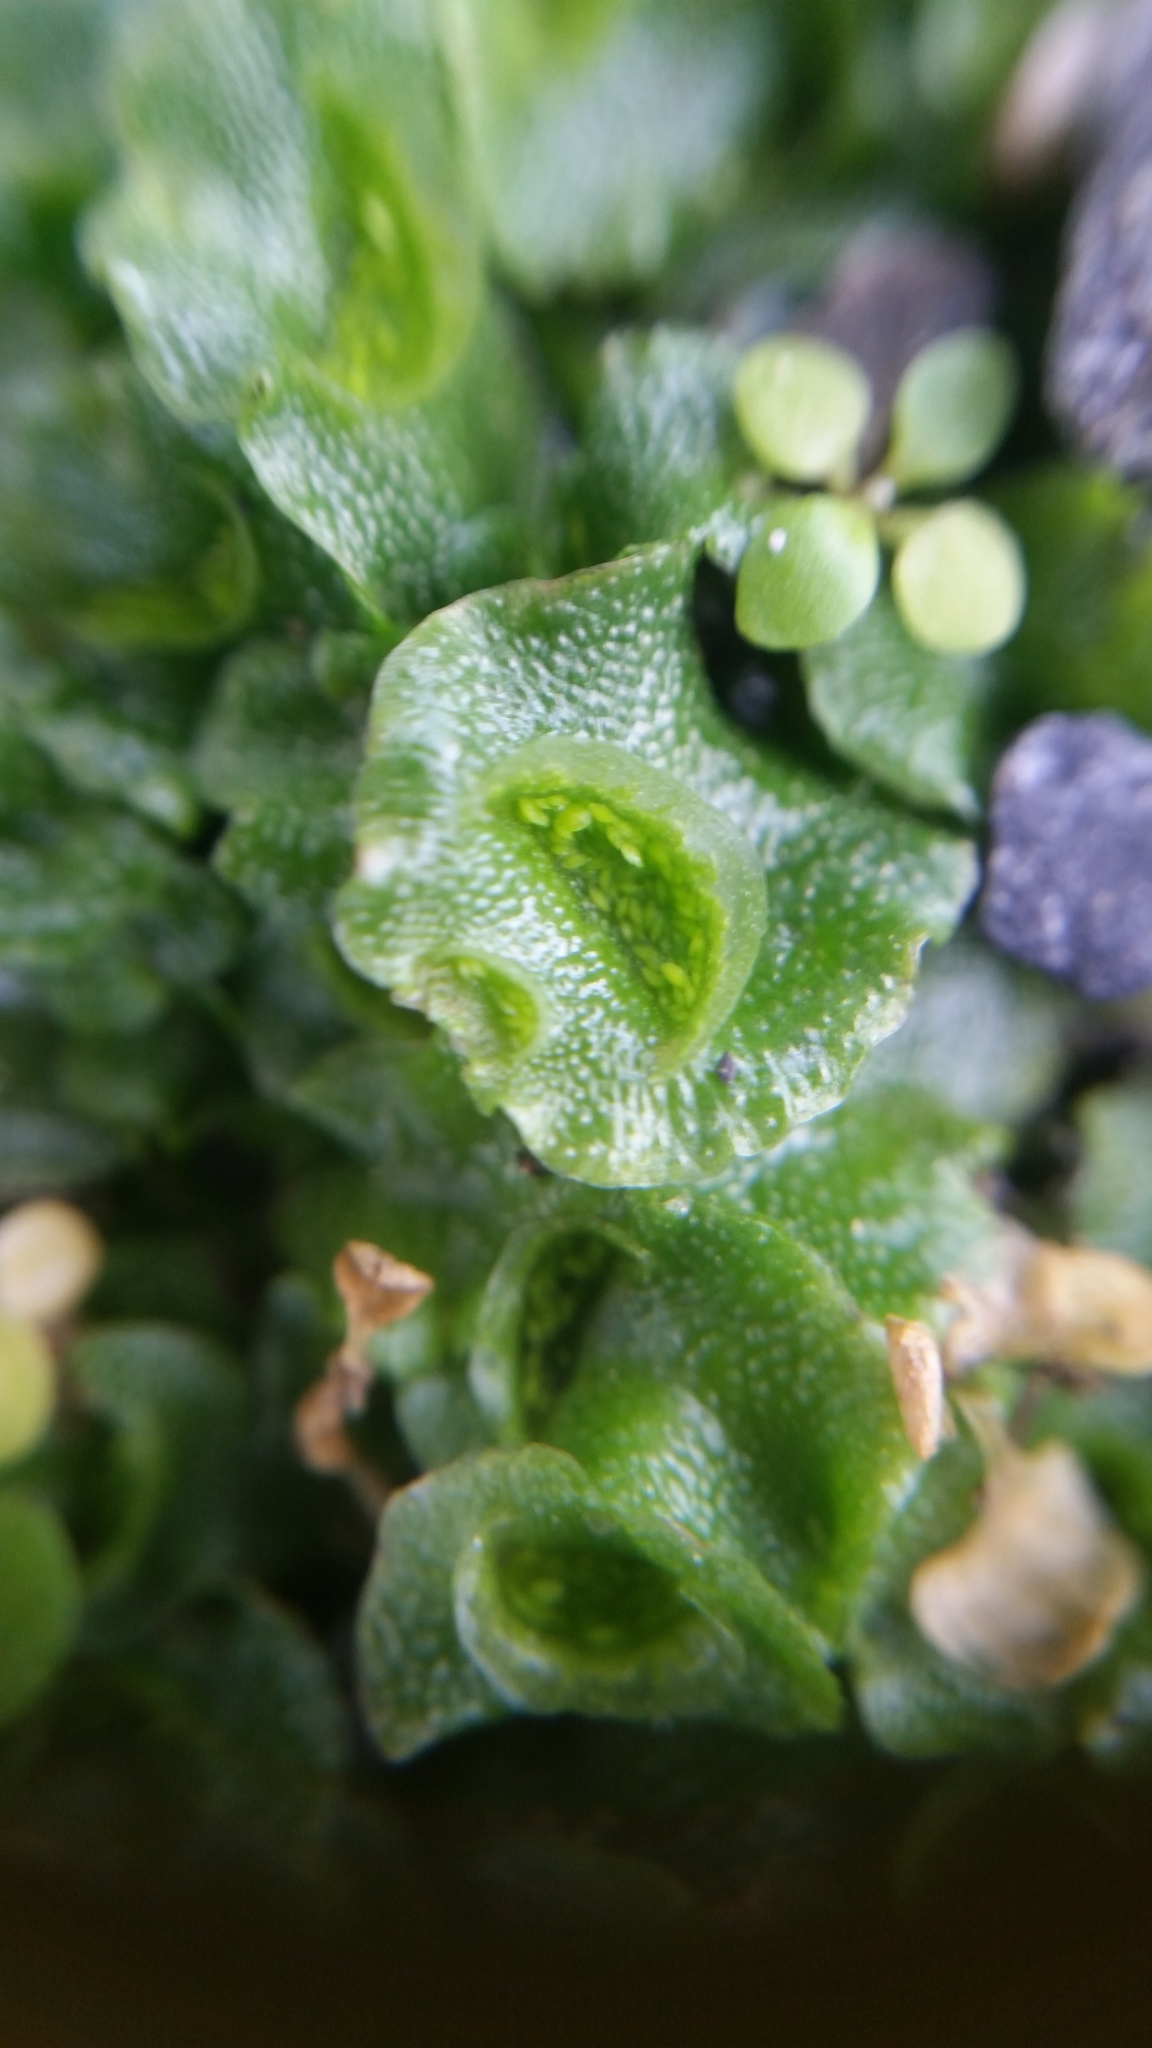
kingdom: Plantae
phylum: Marchantiophyta
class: Marchantiopsida
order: Lunulariales
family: Lunulariaceae
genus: Lunularia
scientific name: Lunularia cruciata
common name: Crescent-cup liverwort
